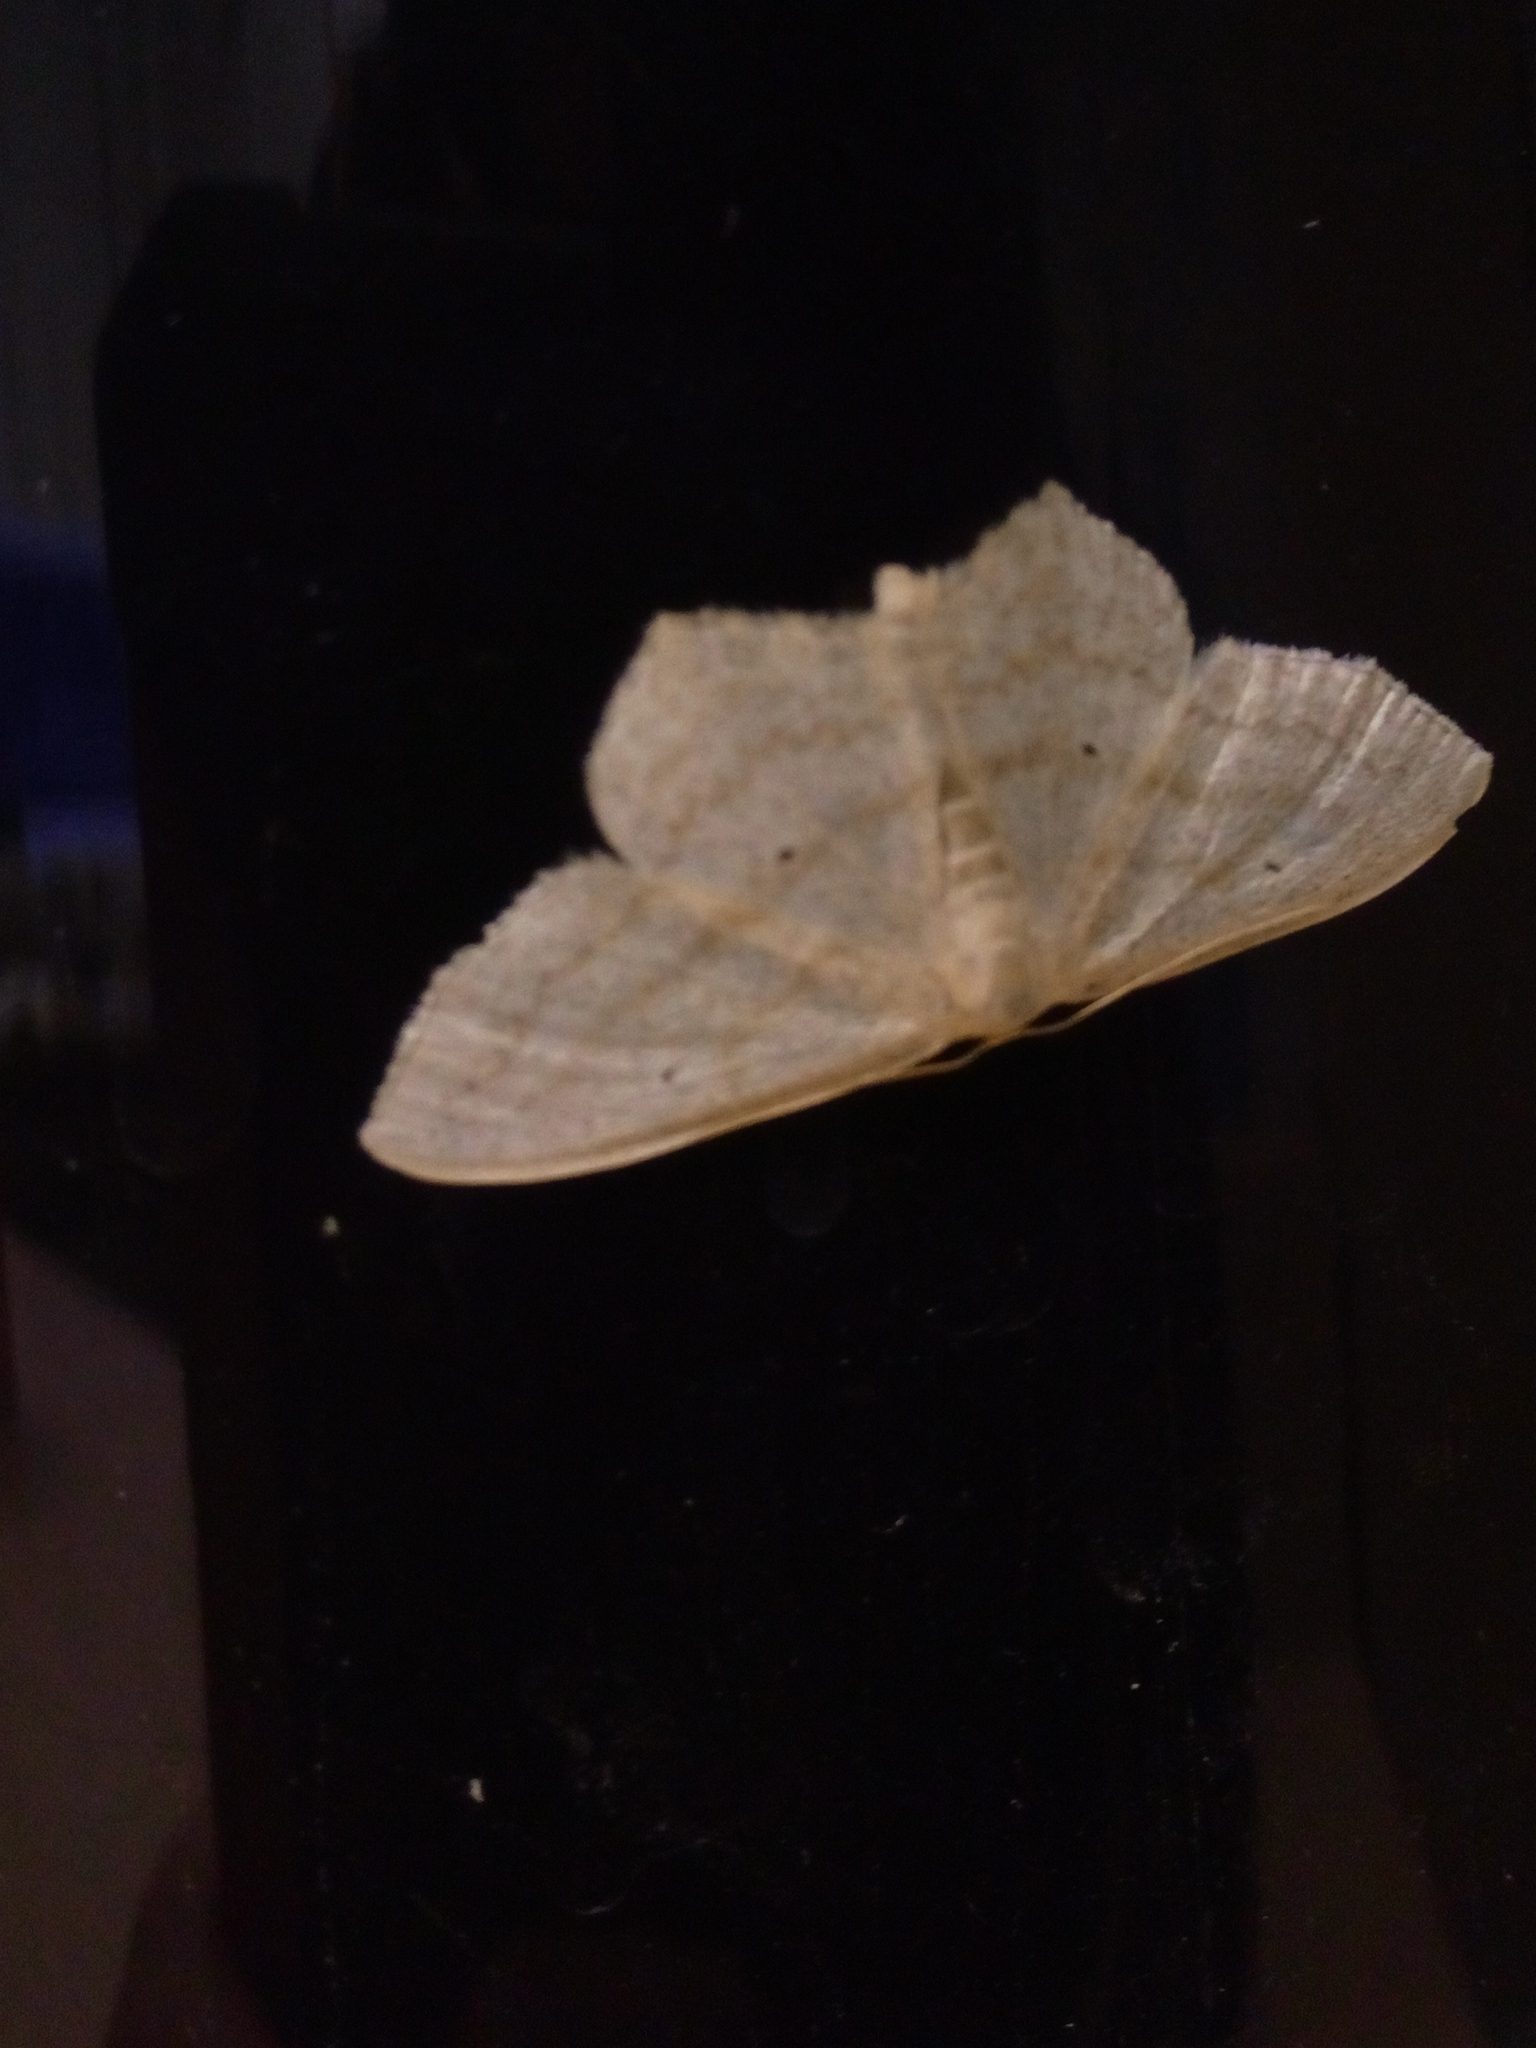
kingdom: Animalia
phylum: Arthropoda
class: Insecta
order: Lepidoptera
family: Geometridae
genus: Scopula
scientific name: Scopula nigropunctata
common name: Sub-angled wave
